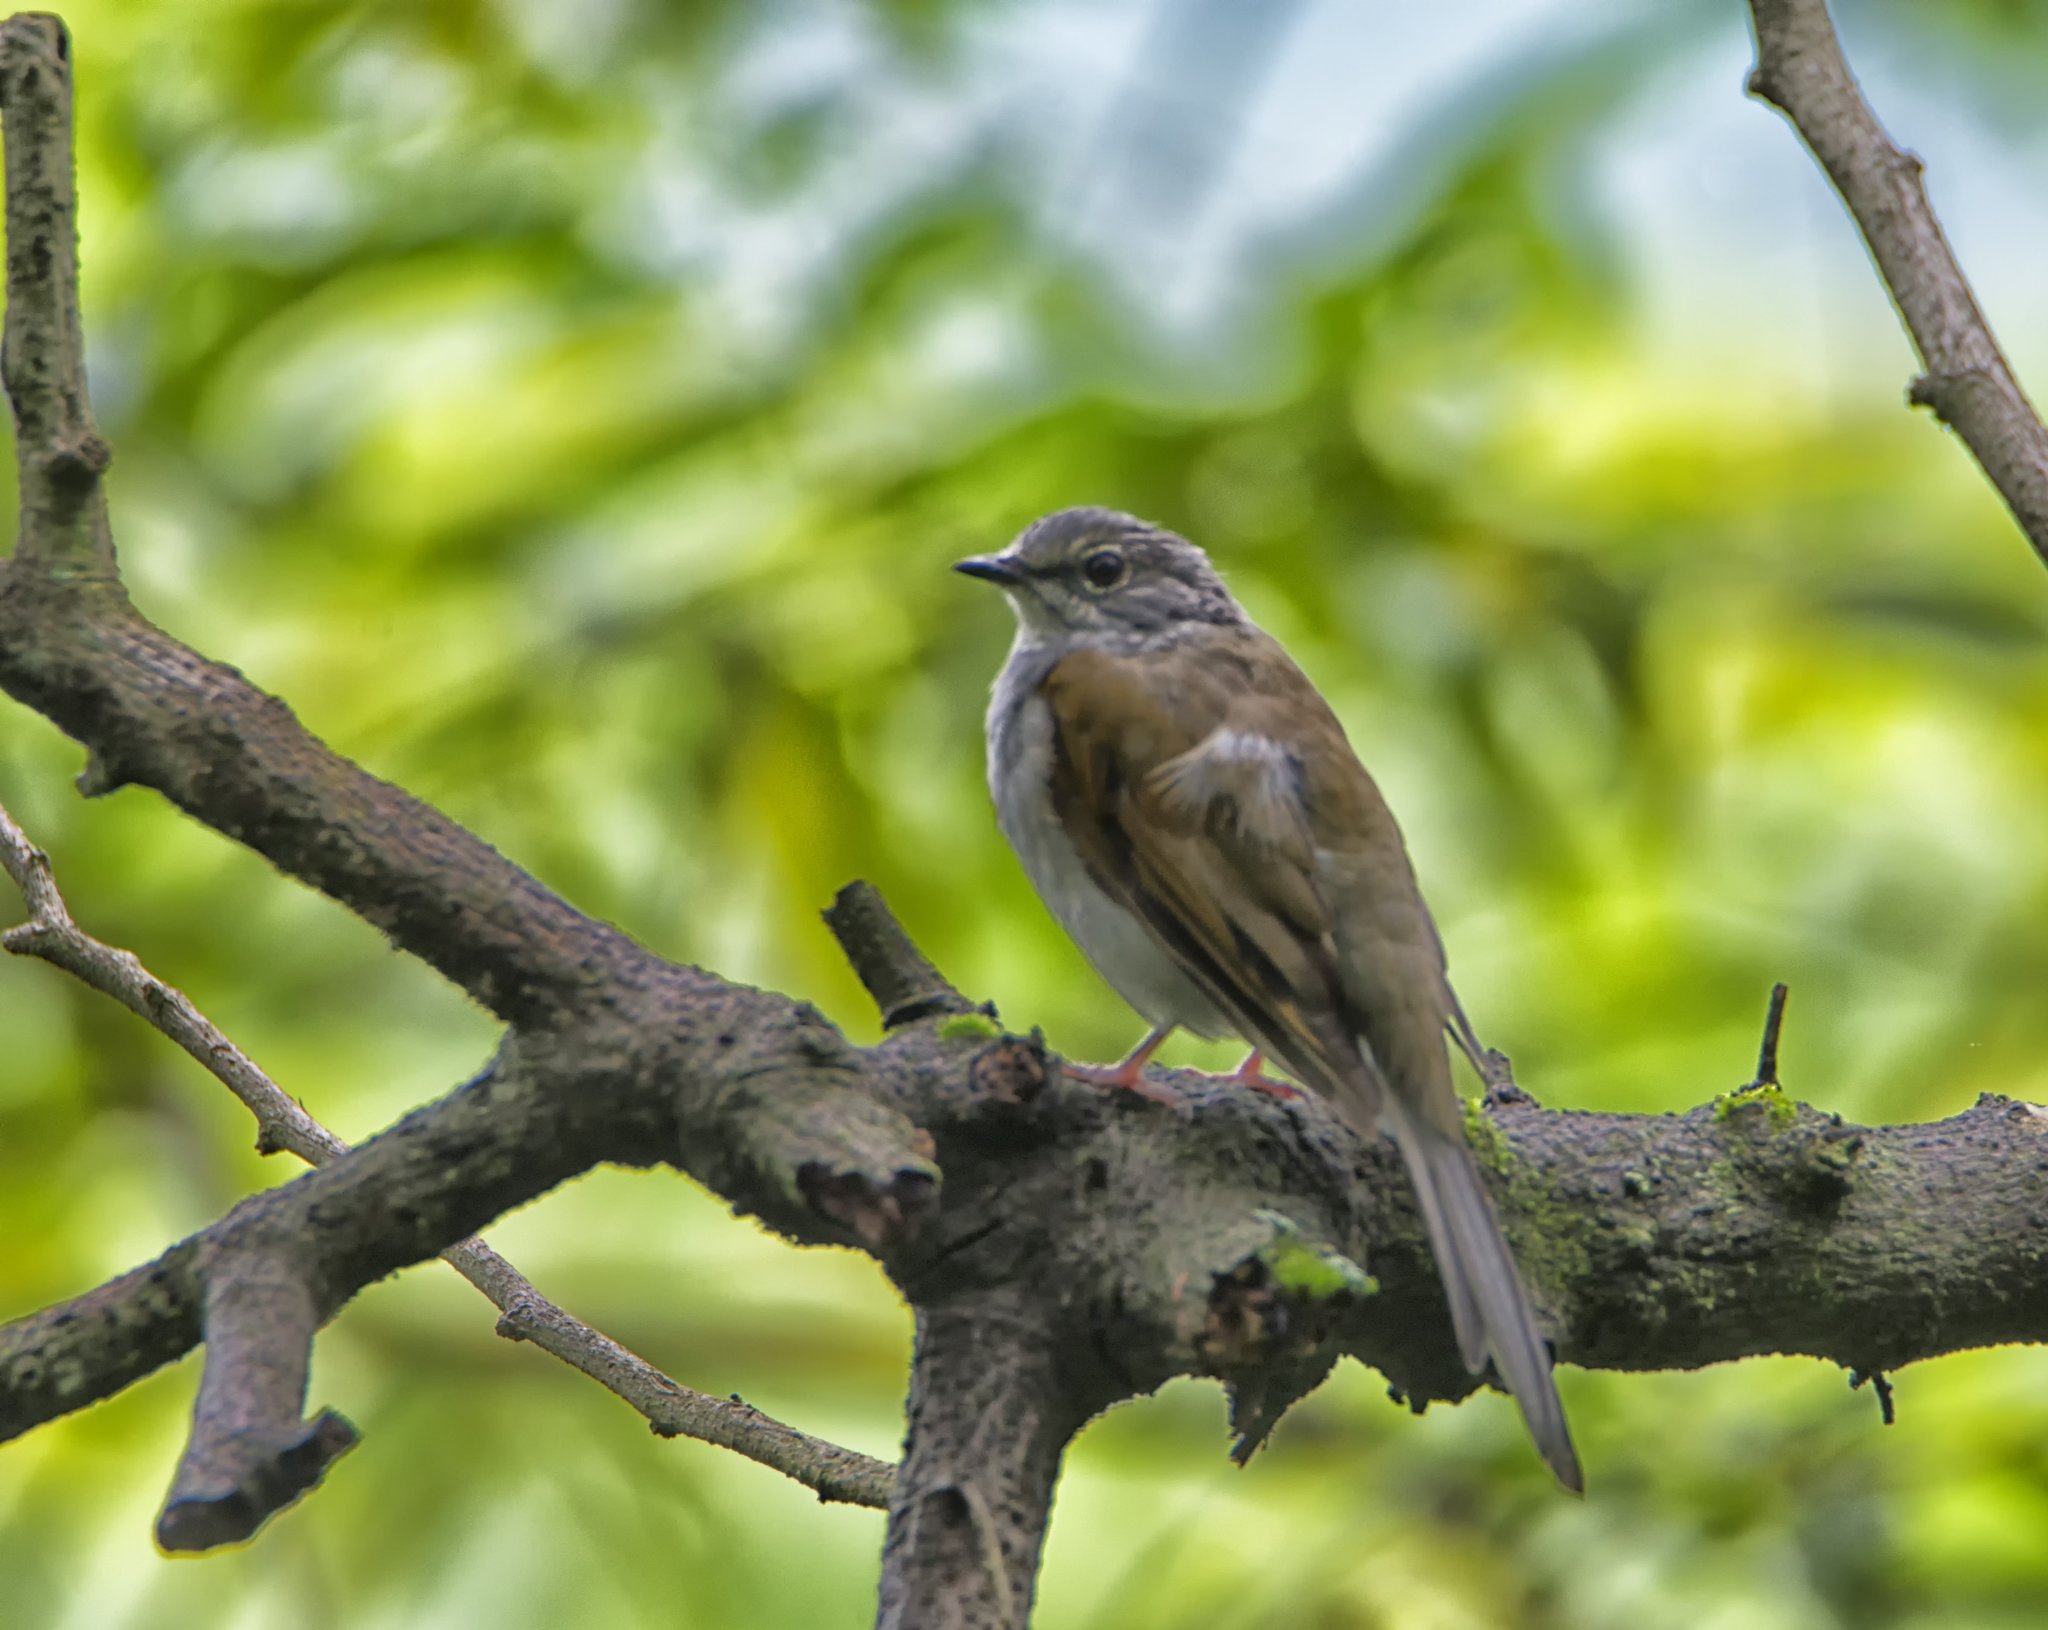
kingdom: Animalia
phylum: Chordata
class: Aves
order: Passeriformes
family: Turdidae
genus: Myadestes
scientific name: Myadestes occidentalis
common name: Brown-backed solitaire
